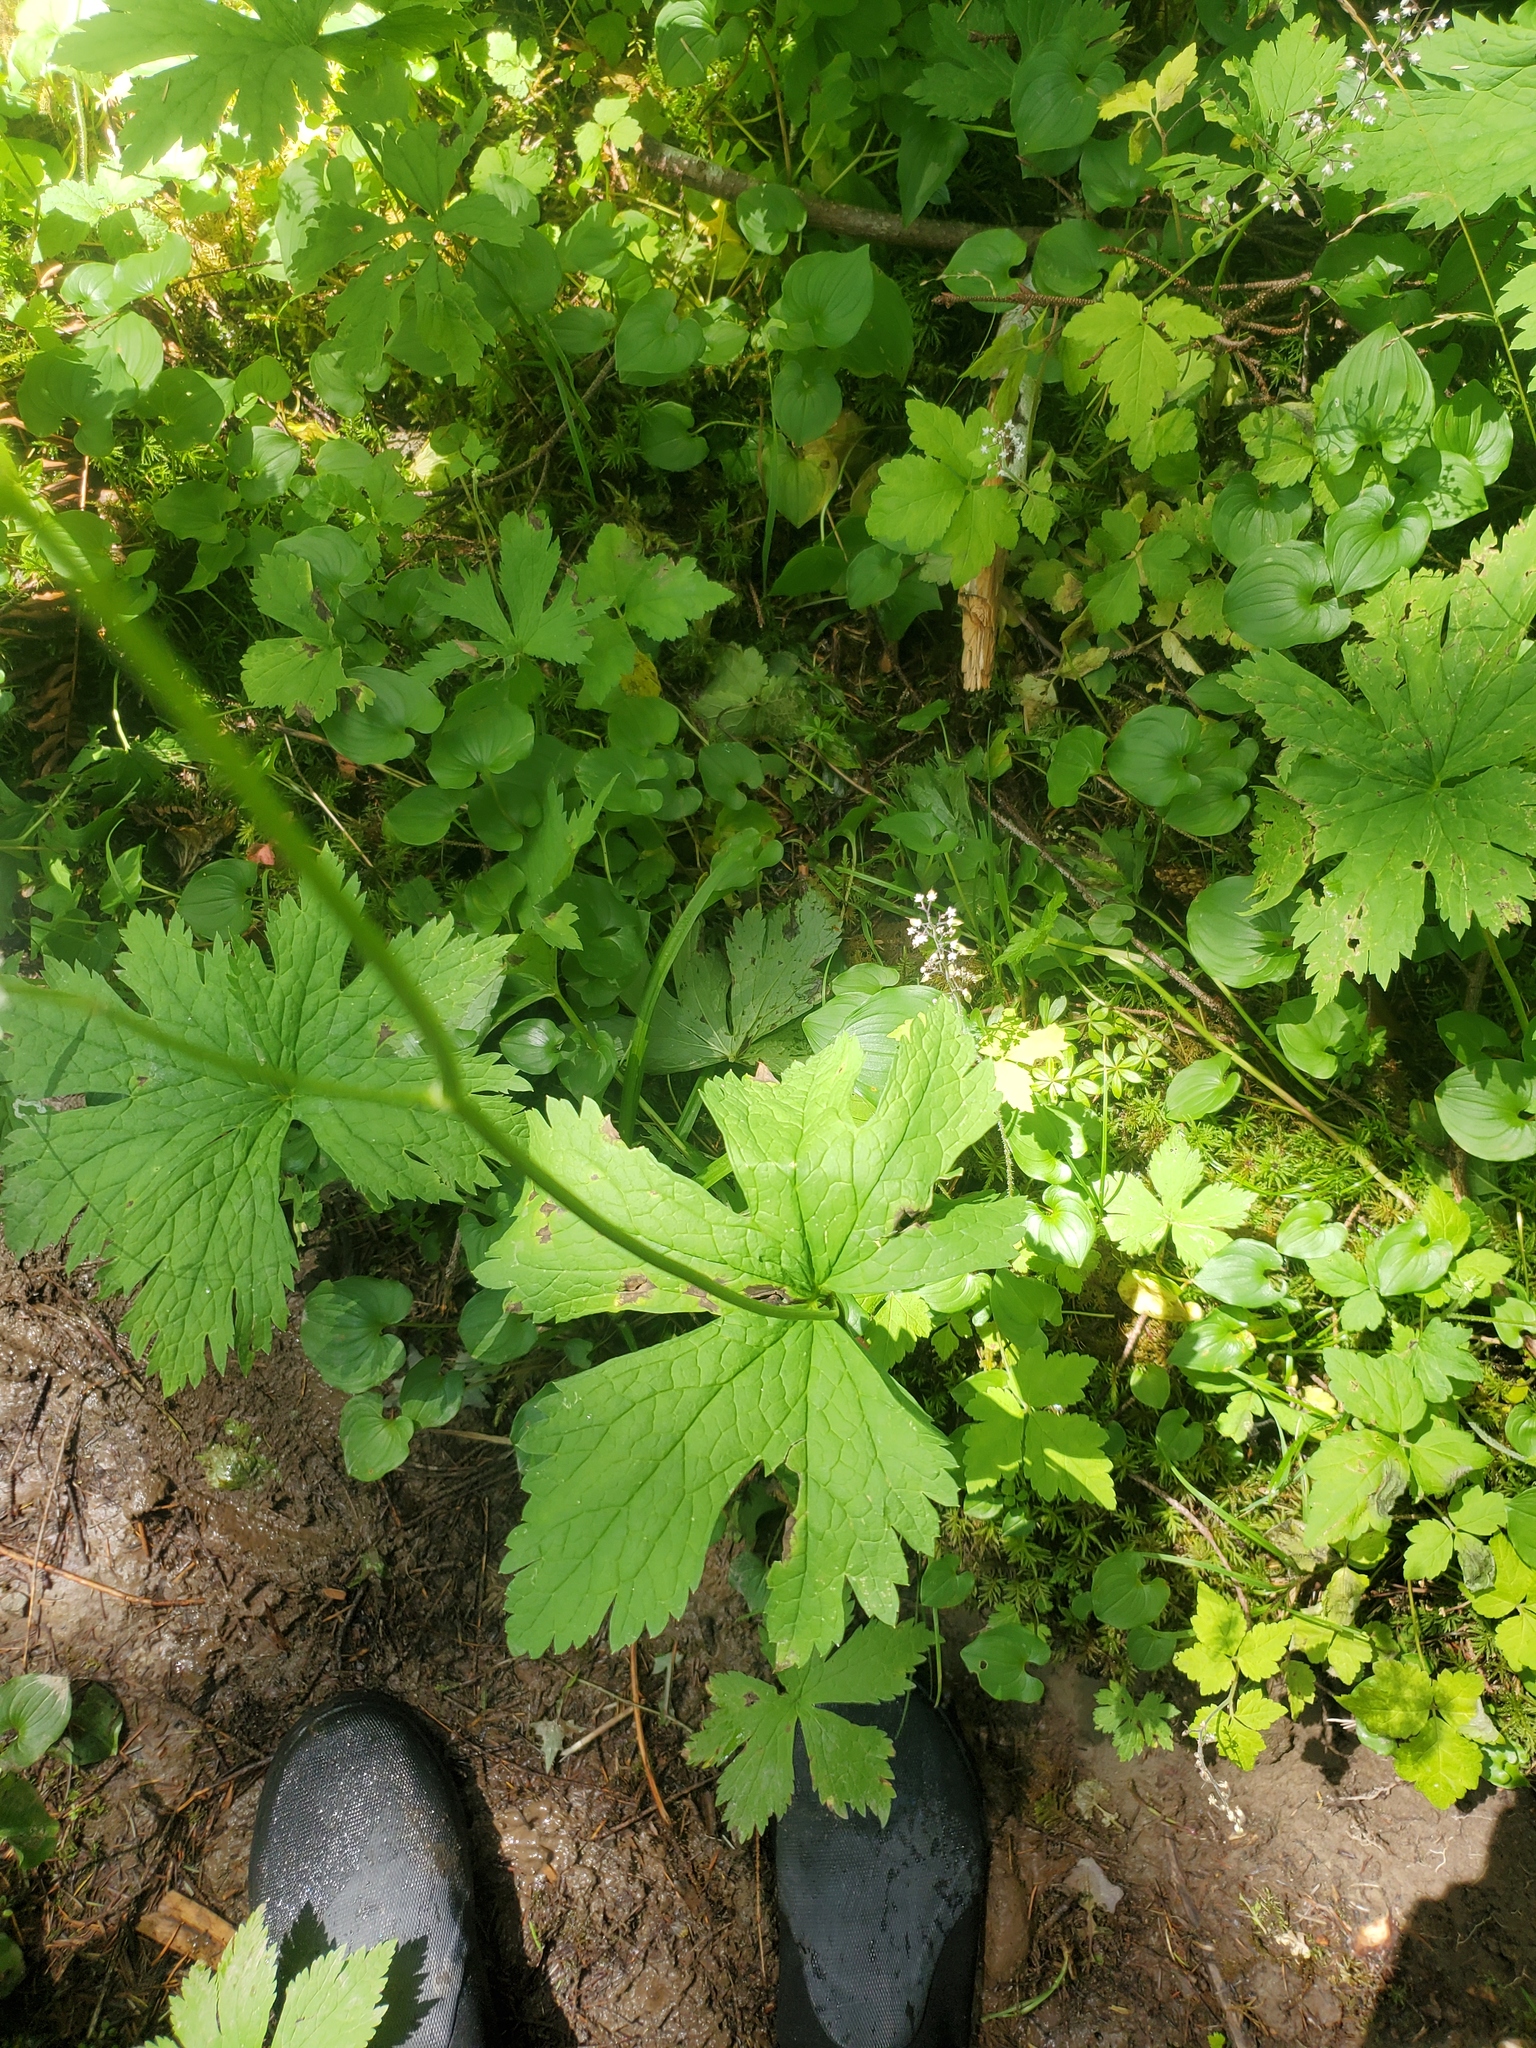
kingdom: Plantae
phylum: Tracheophyta
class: Magnoliopsida
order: Ranunculales
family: Ranunculaceae
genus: Trautvetteria
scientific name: Trautvetteria carolinensis
